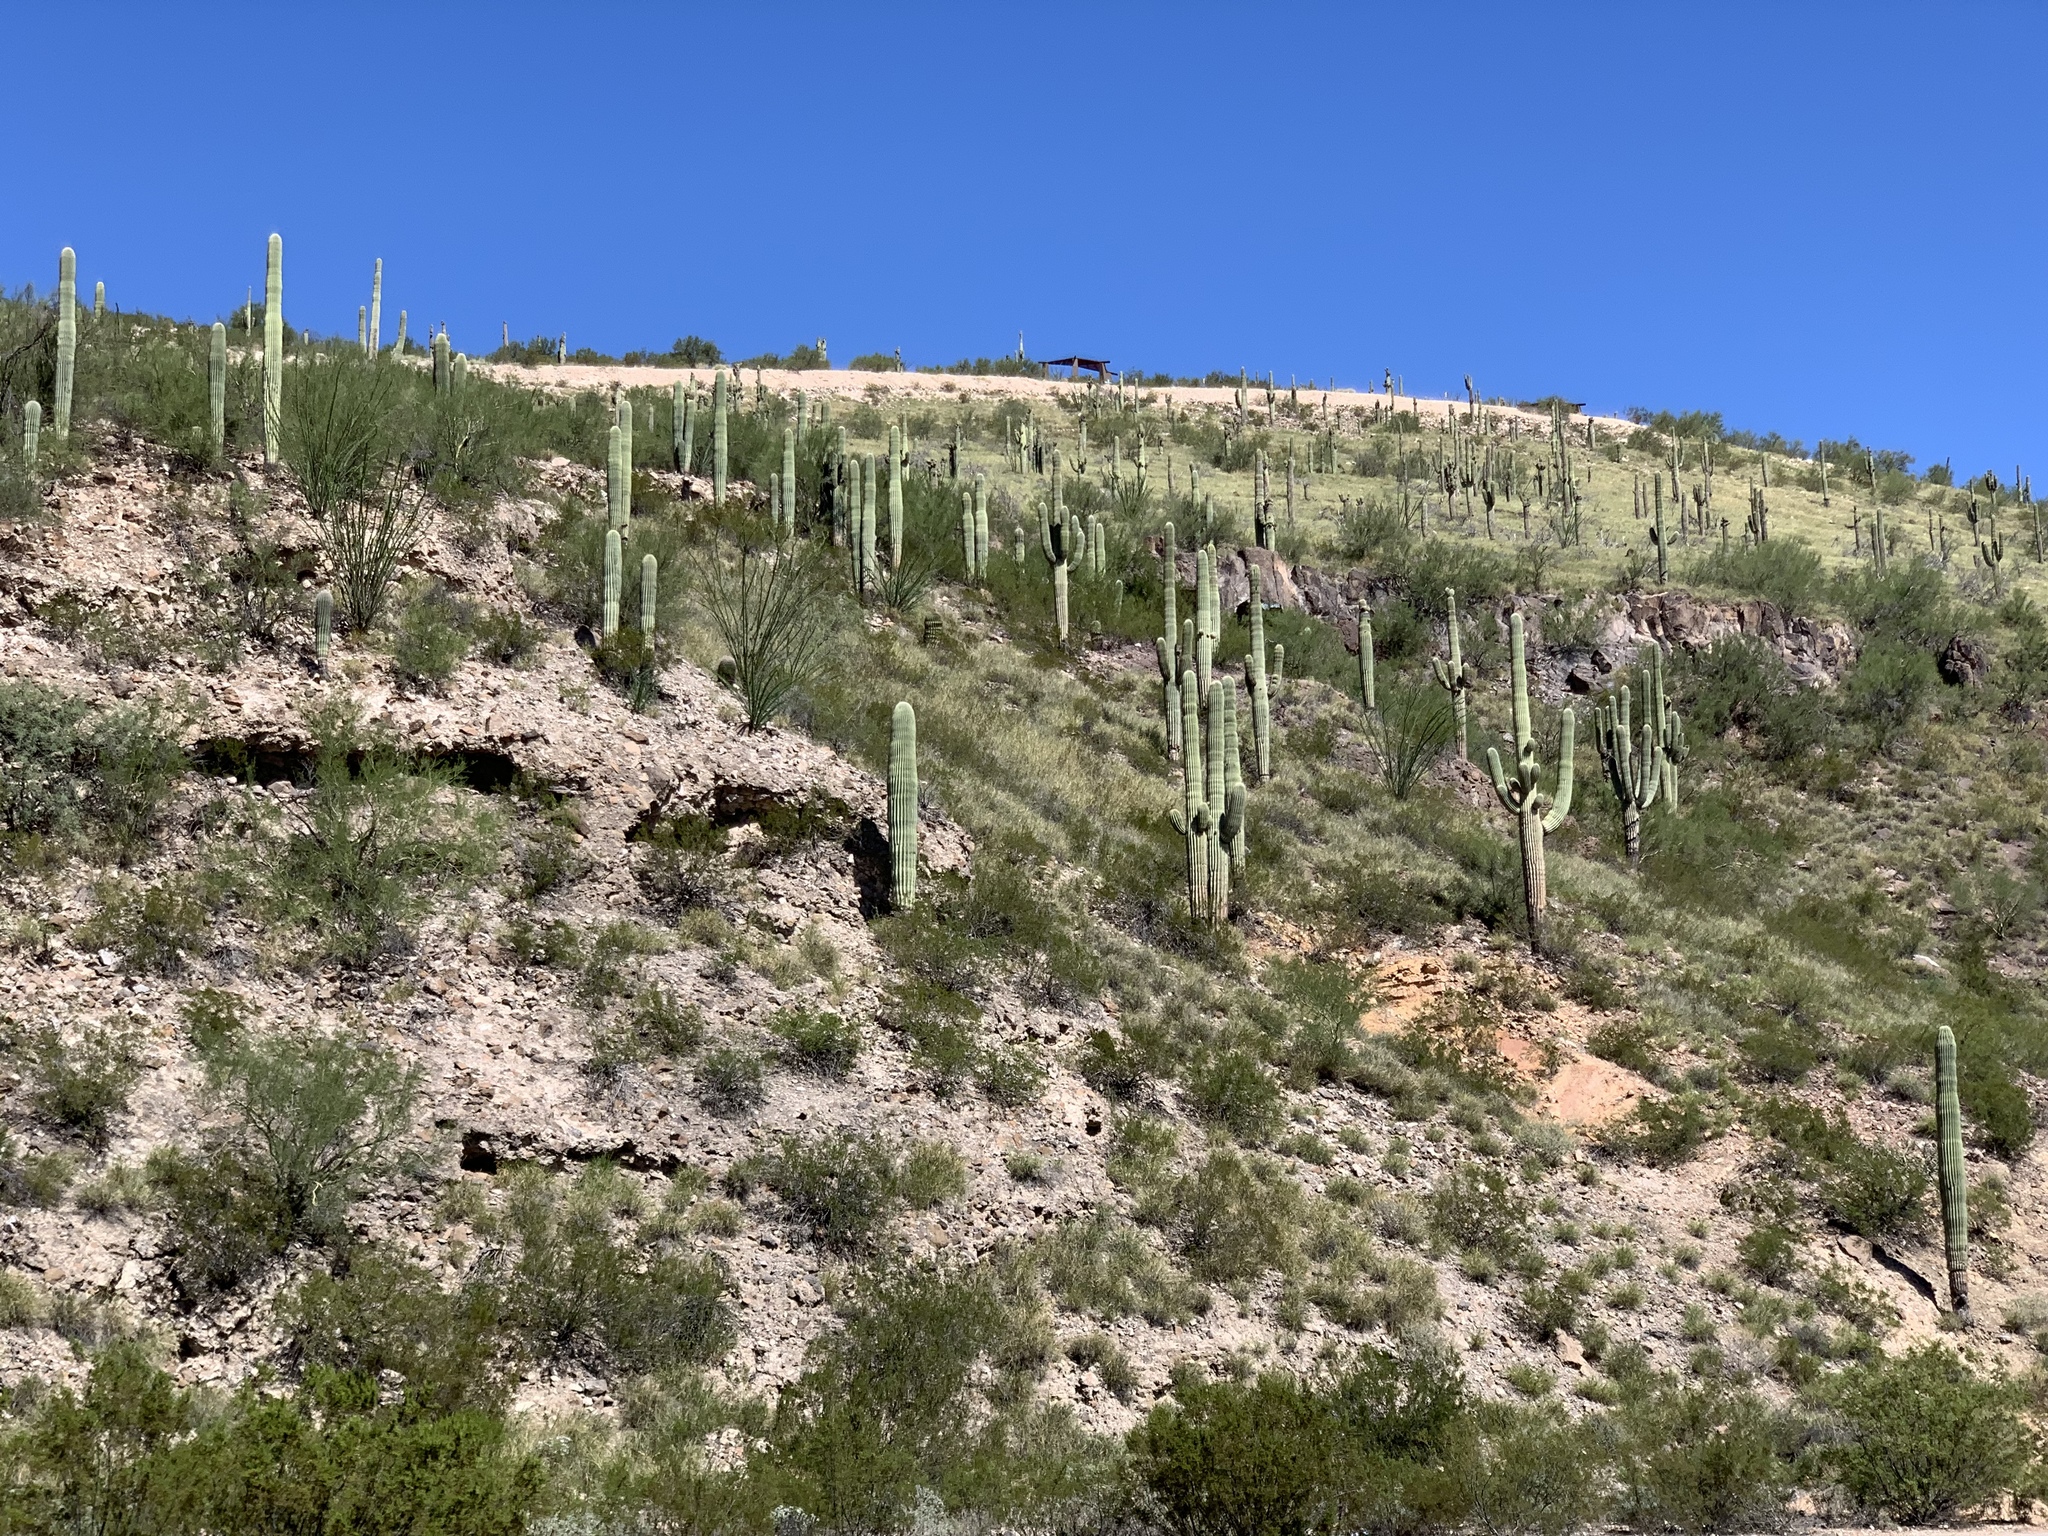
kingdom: Plantae
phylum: Tracheophyta
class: Magnoliopsida
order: Caryophyllales
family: Cactaceae
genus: Carnegiea
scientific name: Carnegiea gigantea
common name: Saguaro
